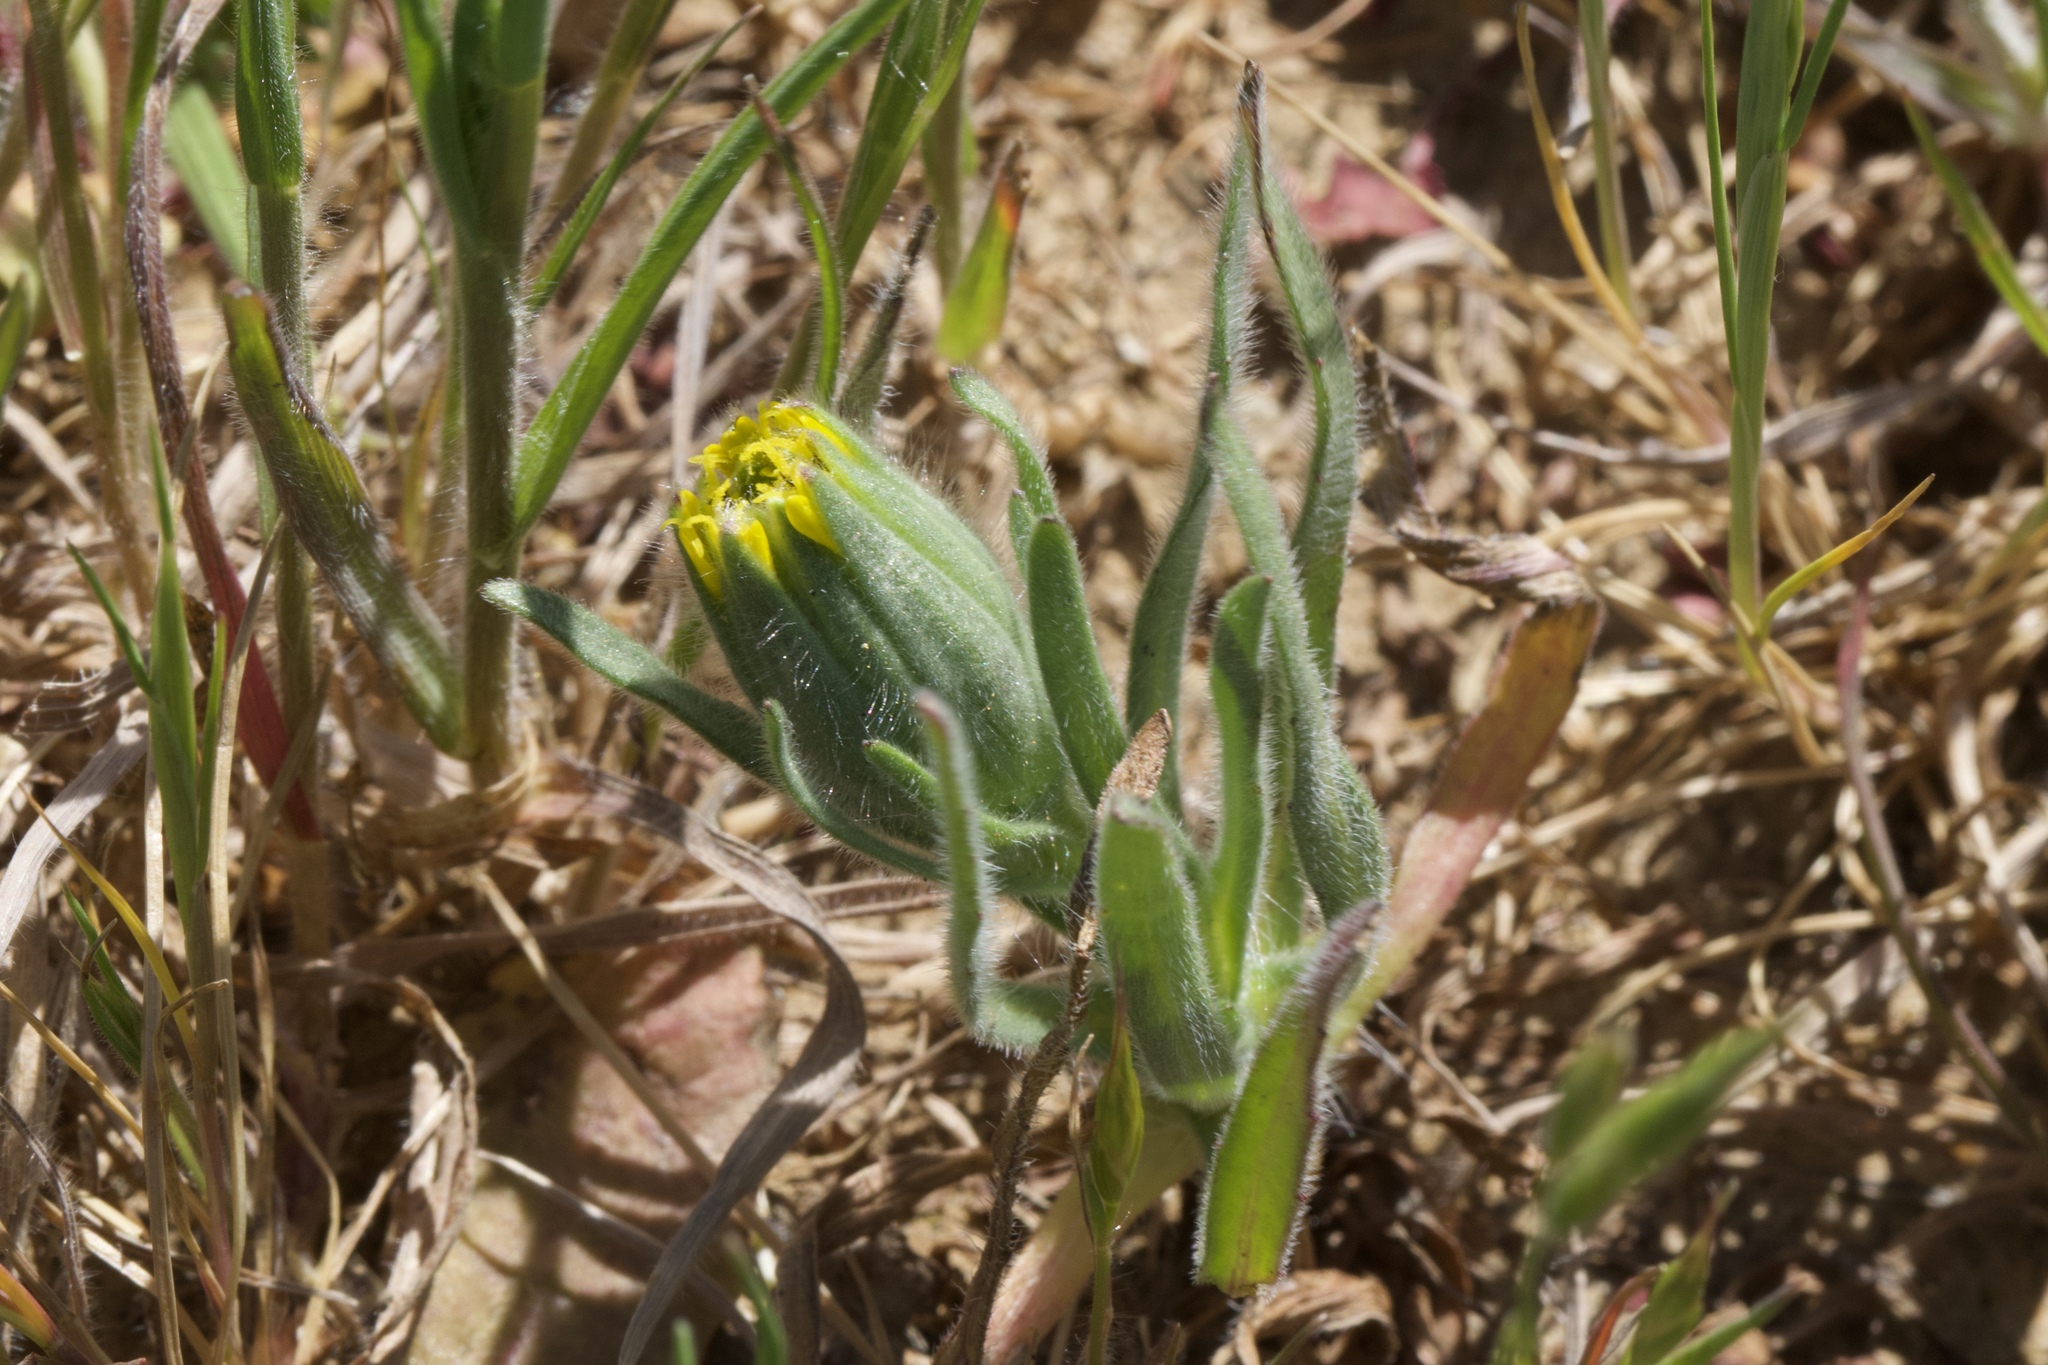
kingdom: Plantae
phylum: Tracheophyta
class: Magnoliopsida
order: Asterales
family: Asteraceae
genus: Achyrachaena
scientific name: Achyrachaena mollis
